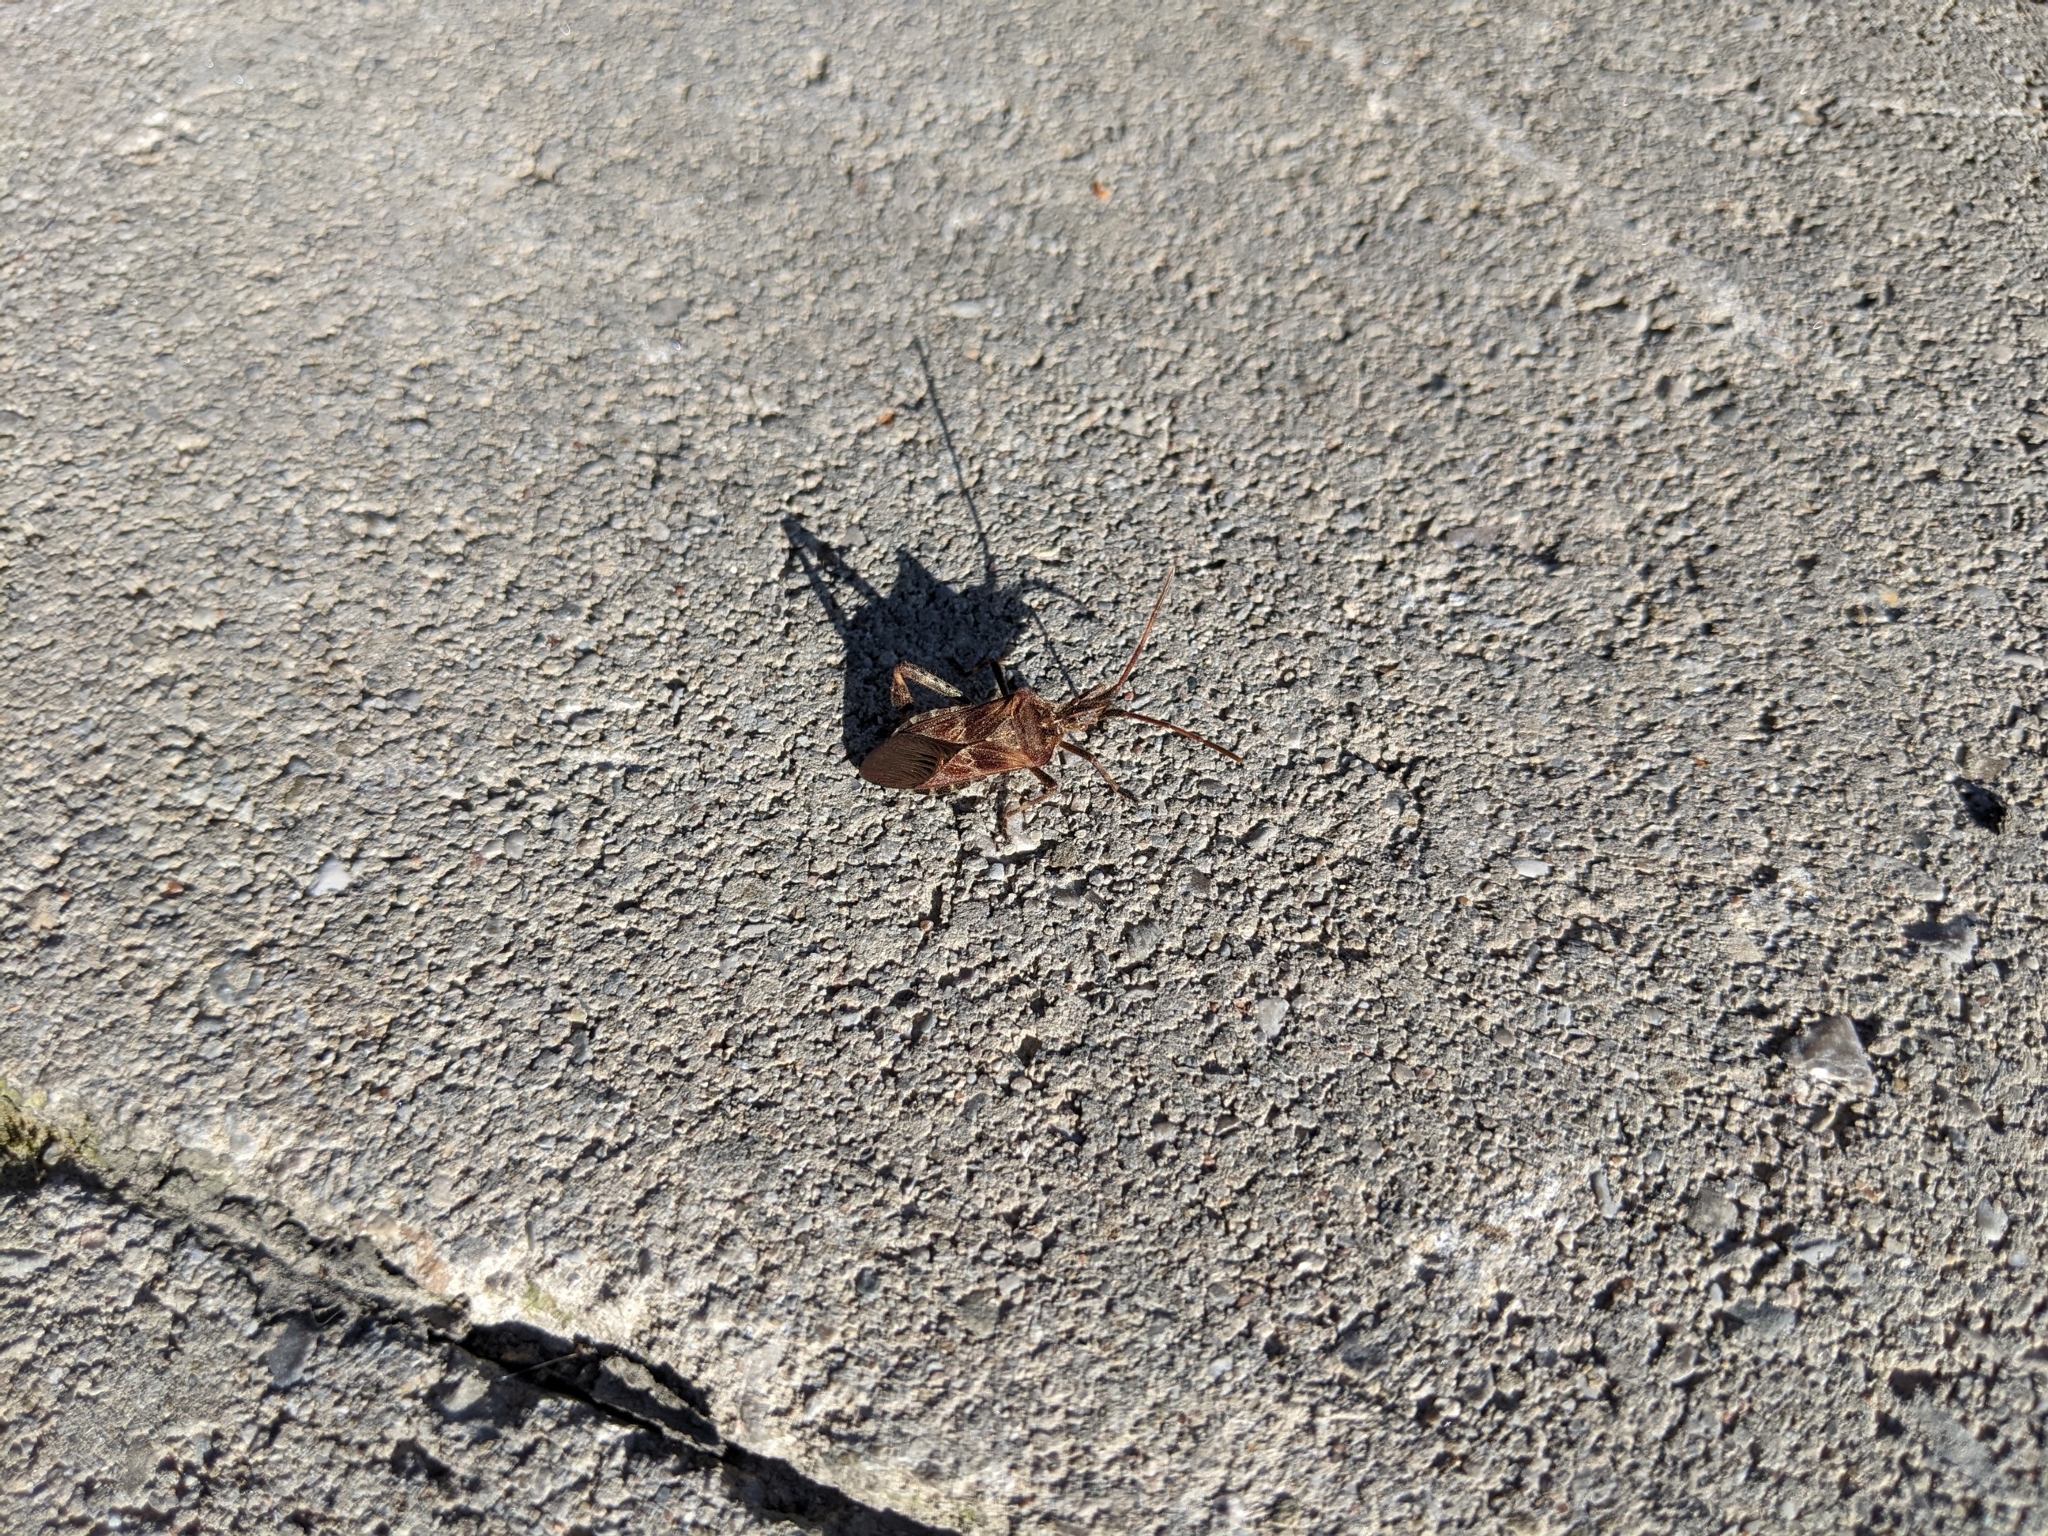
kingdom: Animalia
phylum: Arthropoda
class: Insecta
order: Hemiptera
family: Coreidae
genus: Leptoglossus
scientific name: Leptoglossus occidentalis
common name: Western conifer-seed bug
